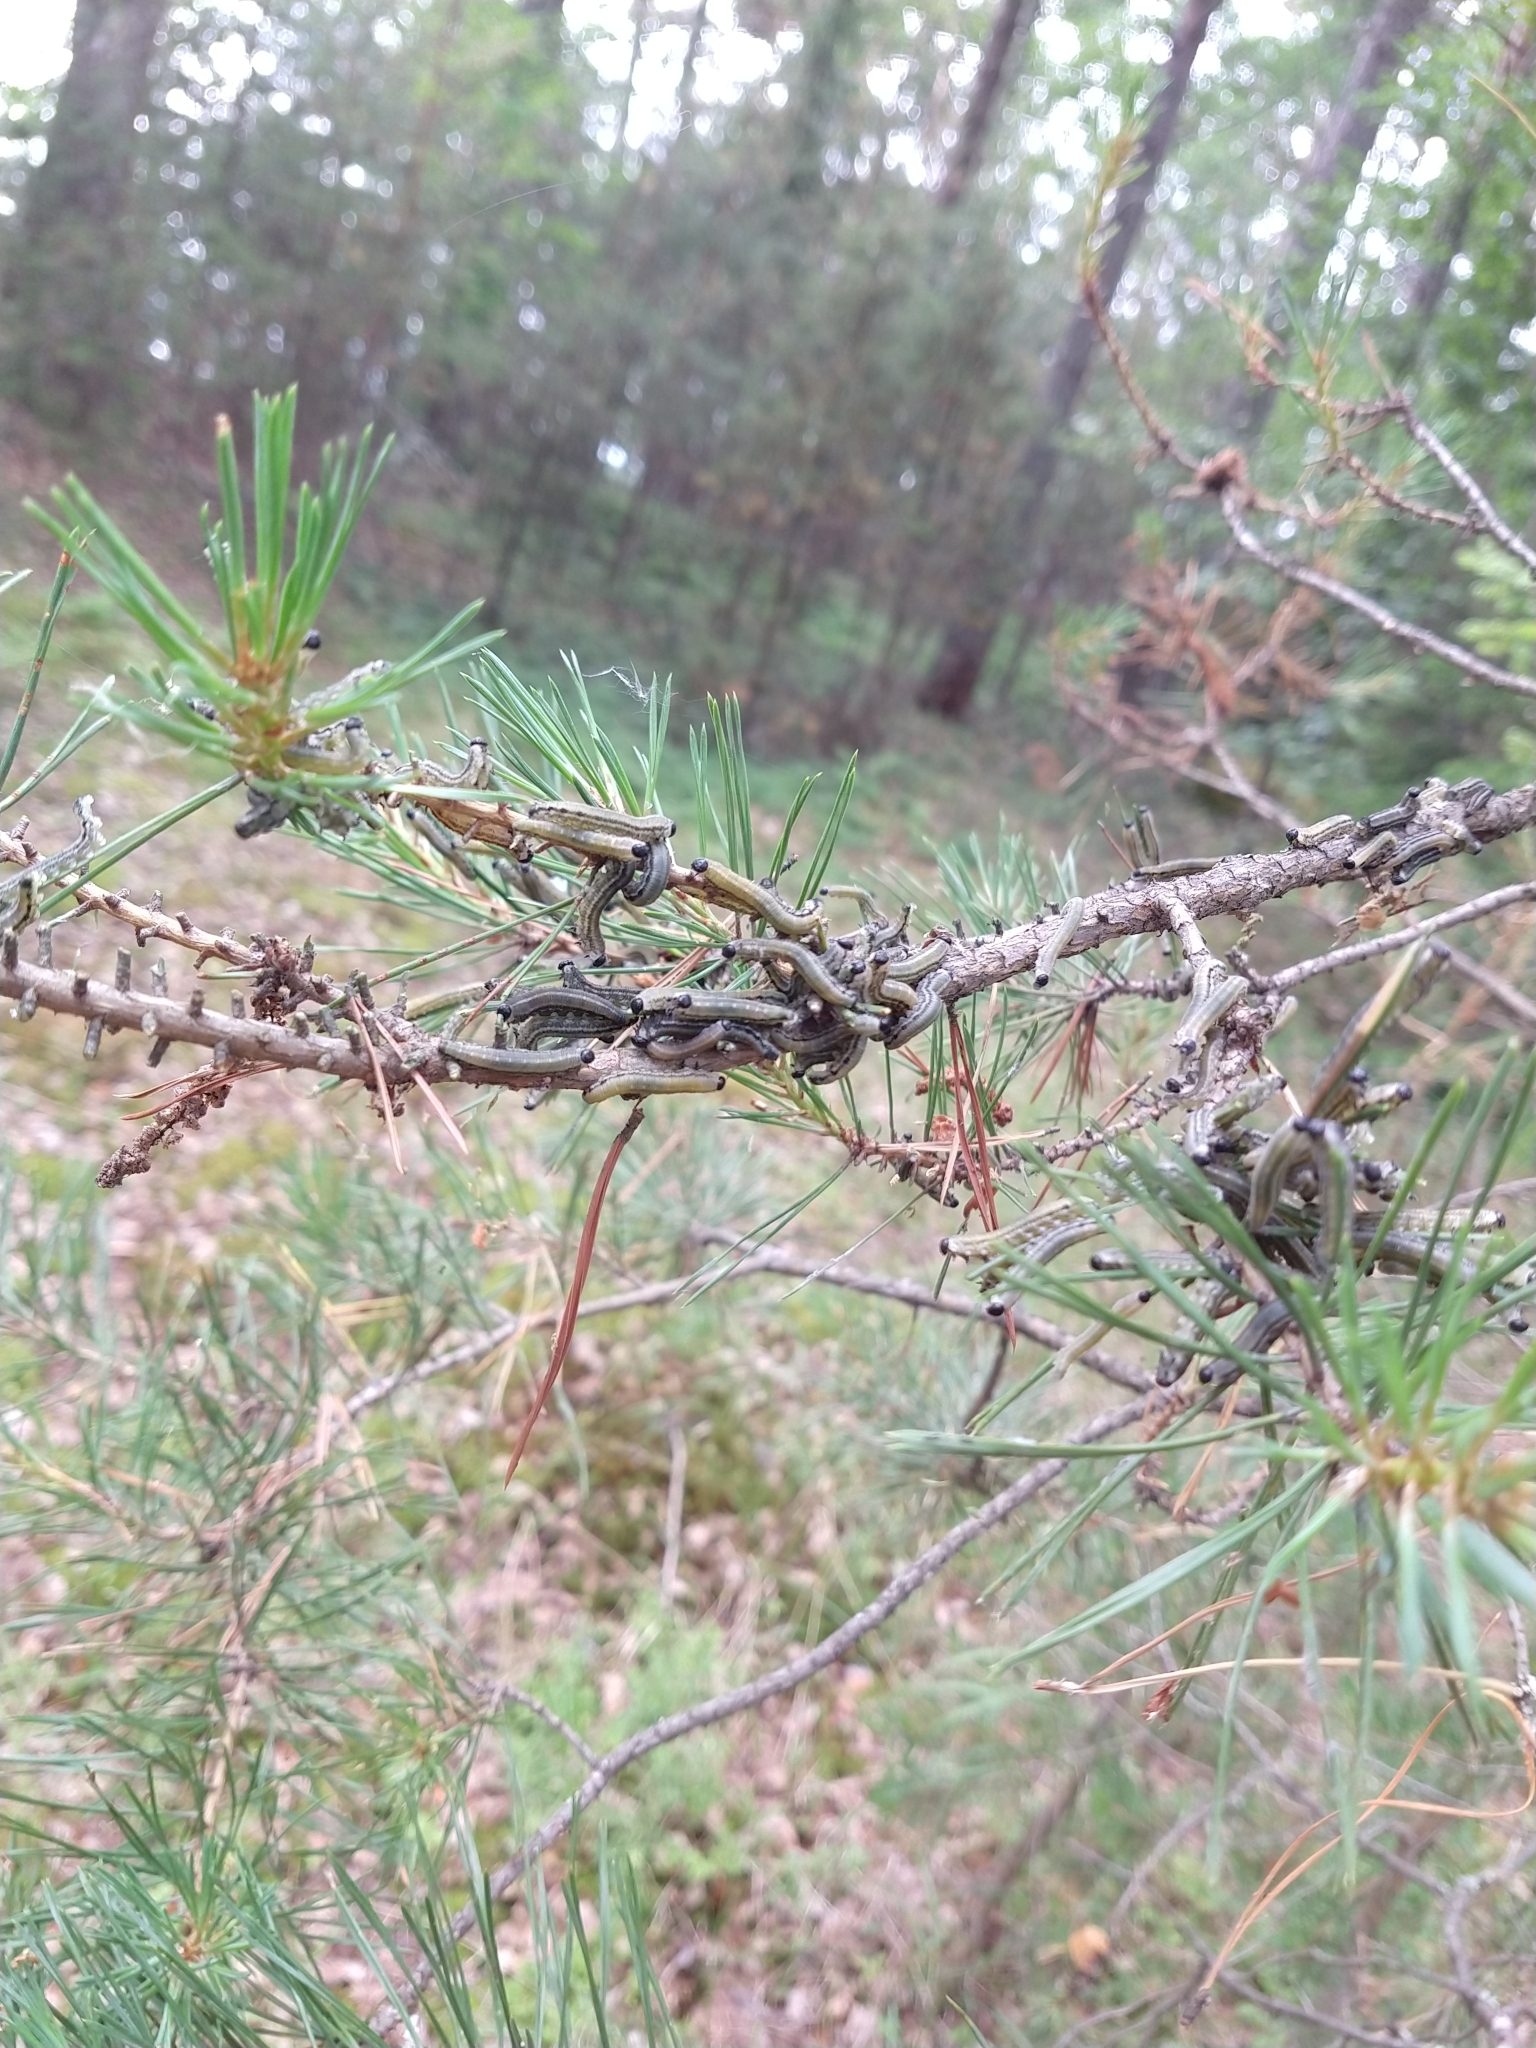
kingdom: Animalia
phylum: Arthropoda
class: Insecta
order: Hymenoptera
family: Diprionidae
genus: Neodiprion
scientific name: Neodiprion sertifer
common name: European pine sawfly
